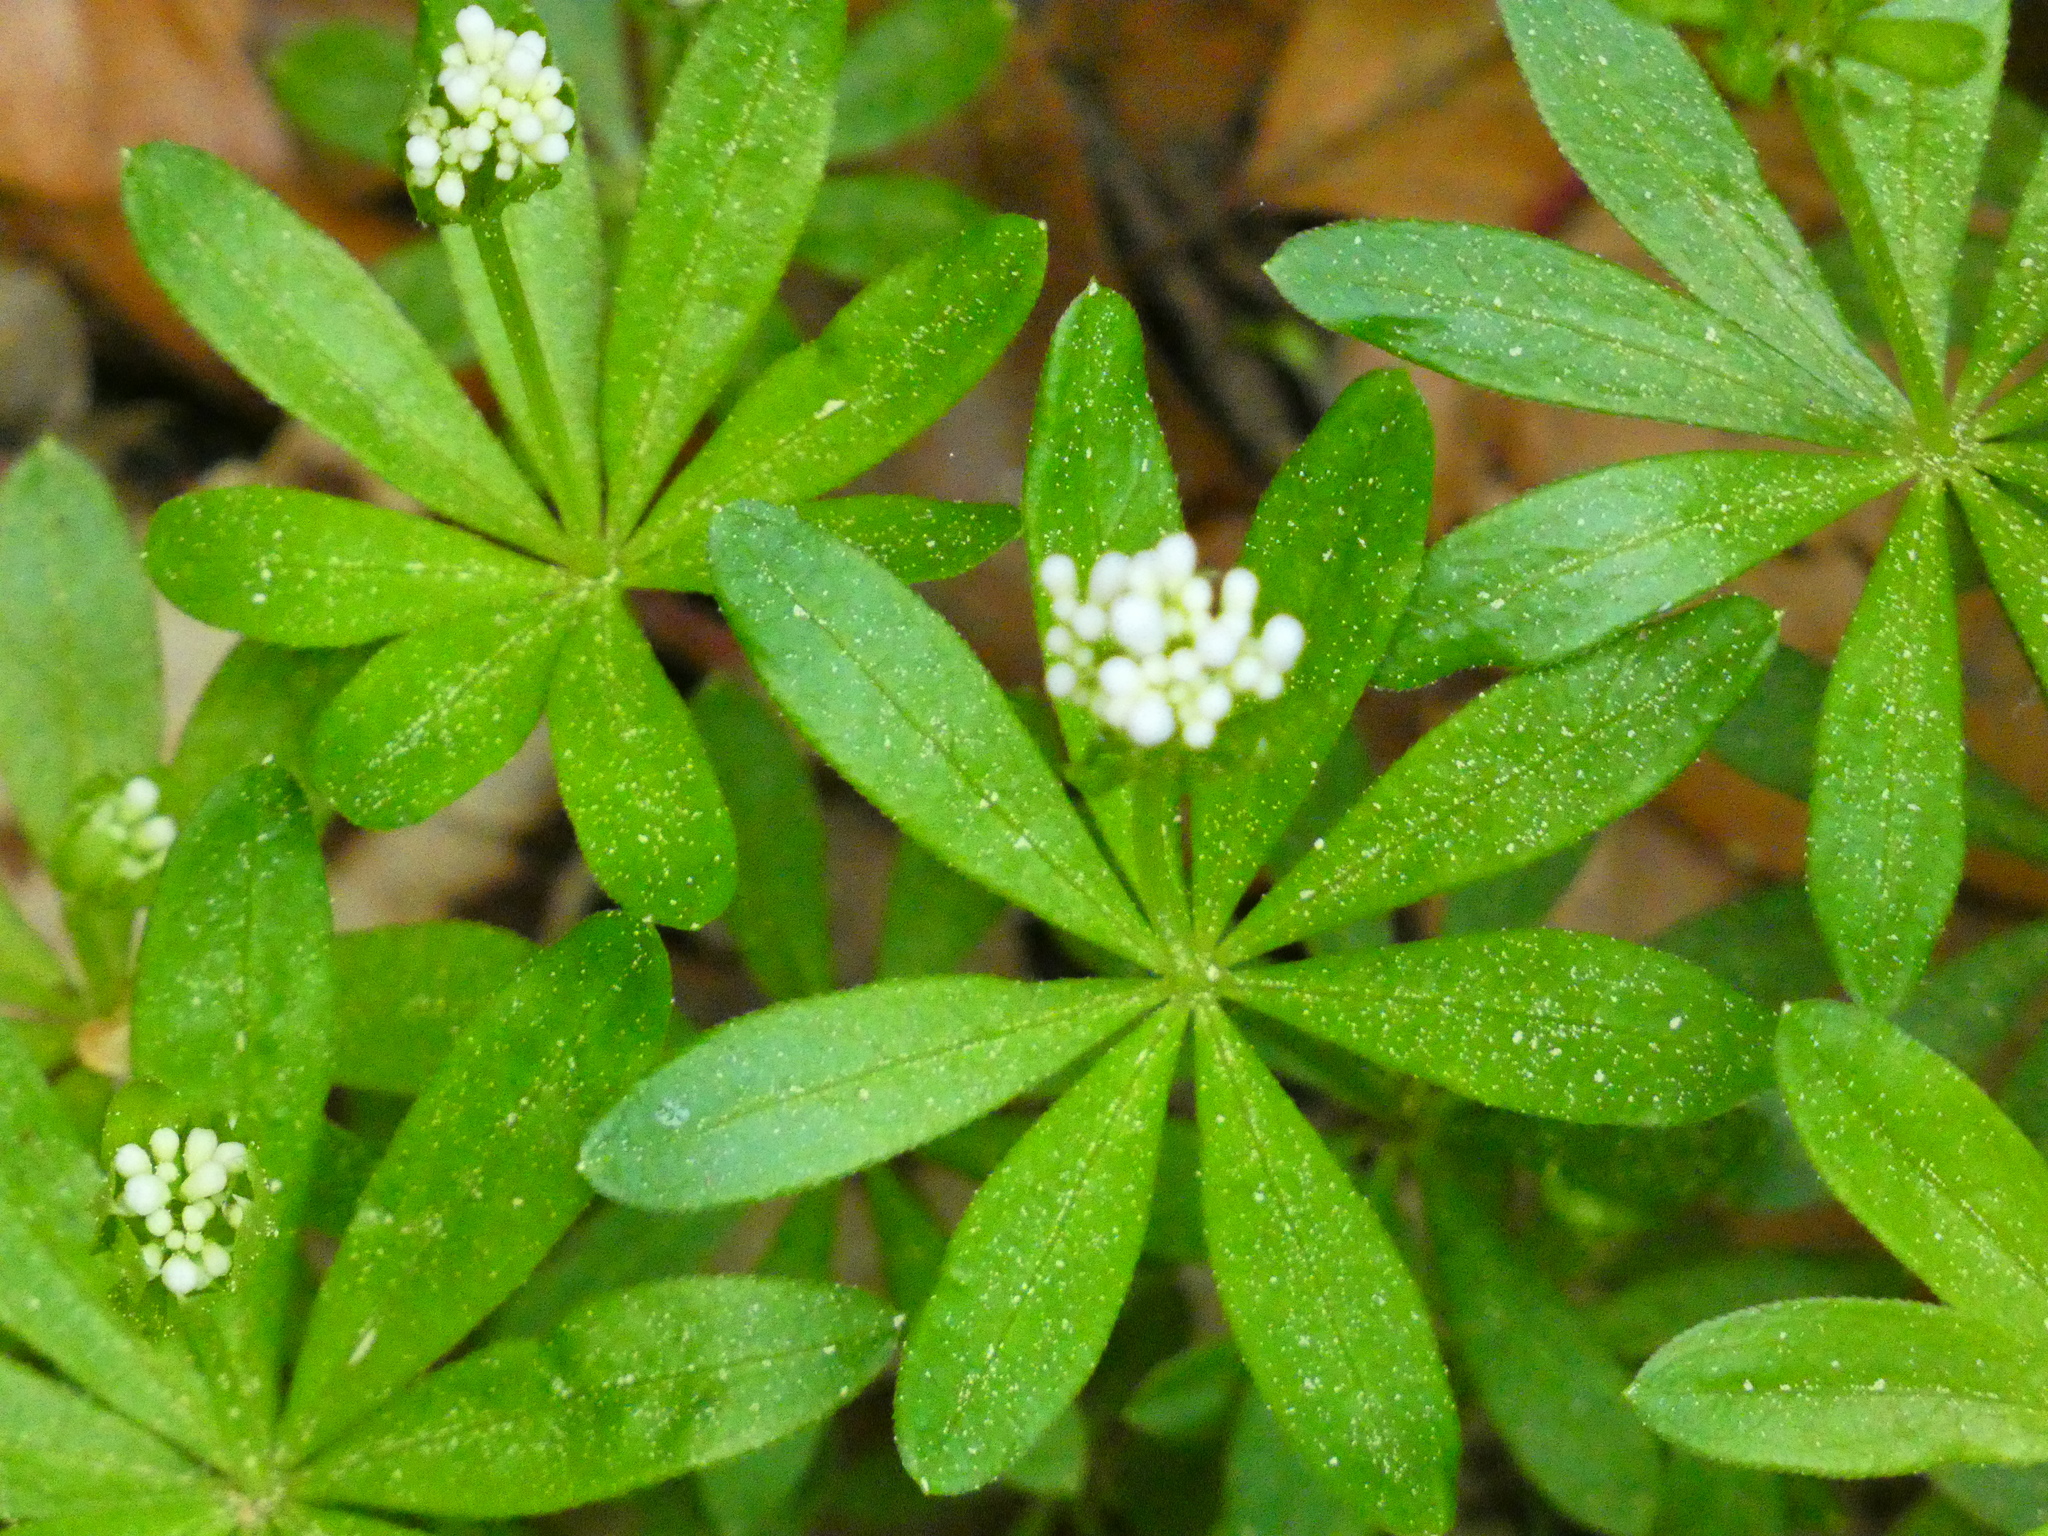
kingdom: Plantae
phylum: Tracheophyta
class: Magnoliopsida
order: Gentianales
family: Rubiaceae
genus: Galium
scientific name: Galium odoratum
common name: Sweet woodruff
